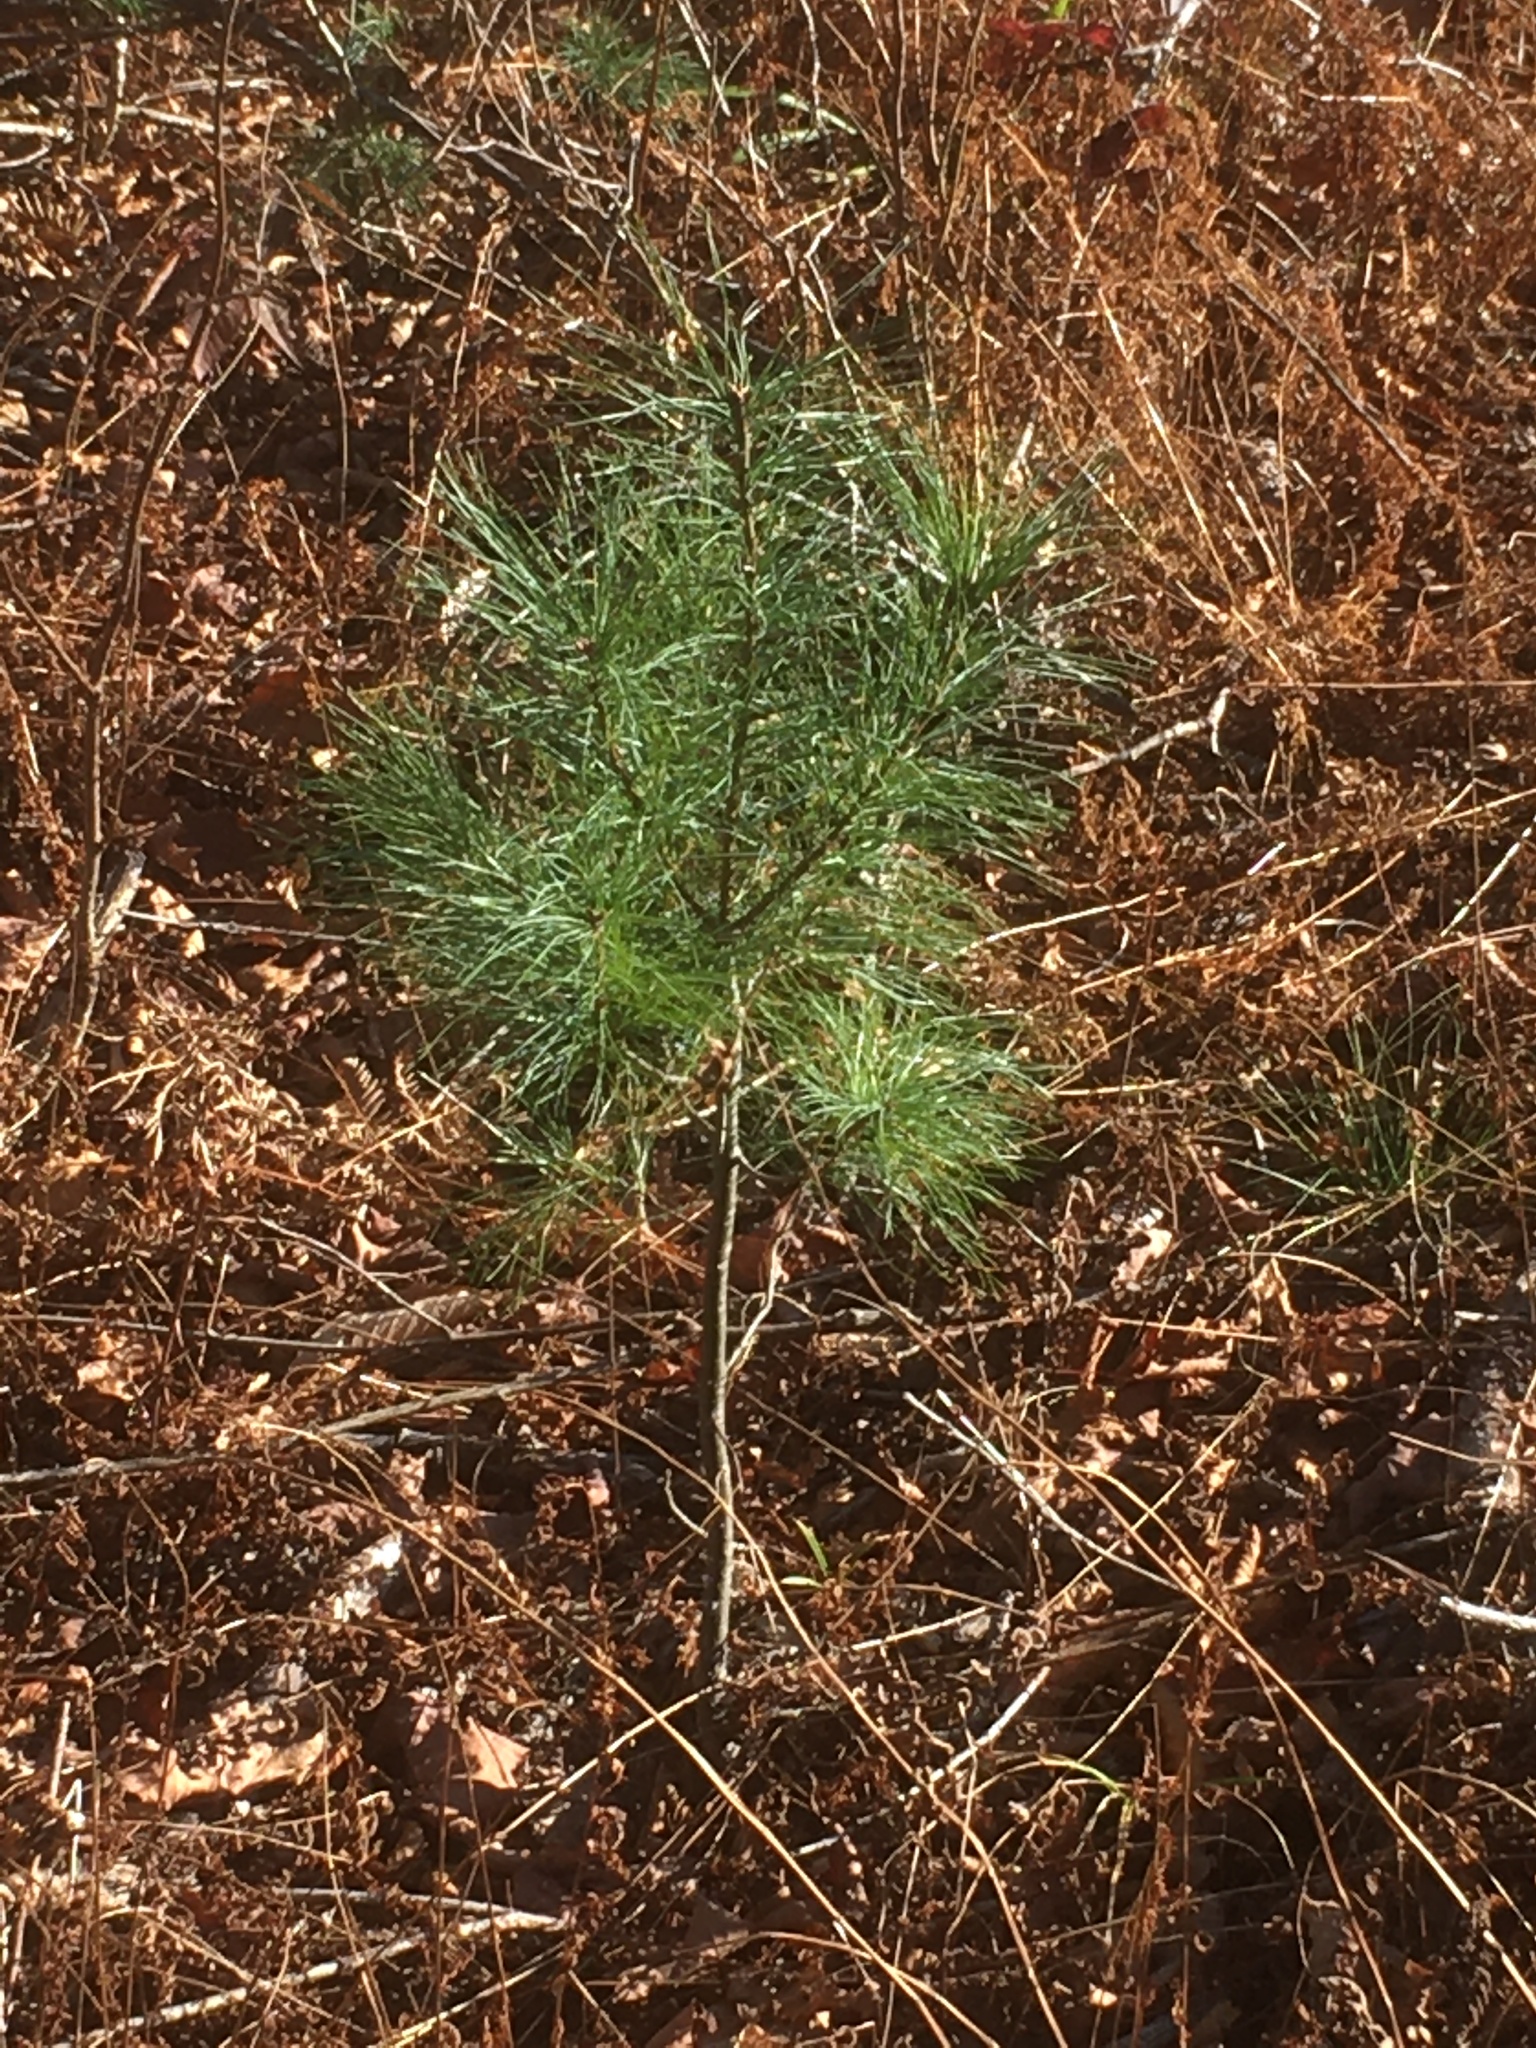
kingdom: Plantae
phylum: Tracheophyta
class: Pinopsida
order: Pinales
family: Pinaceae
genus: Pinus
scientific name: Pinus strobus
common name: Weymouth pine
